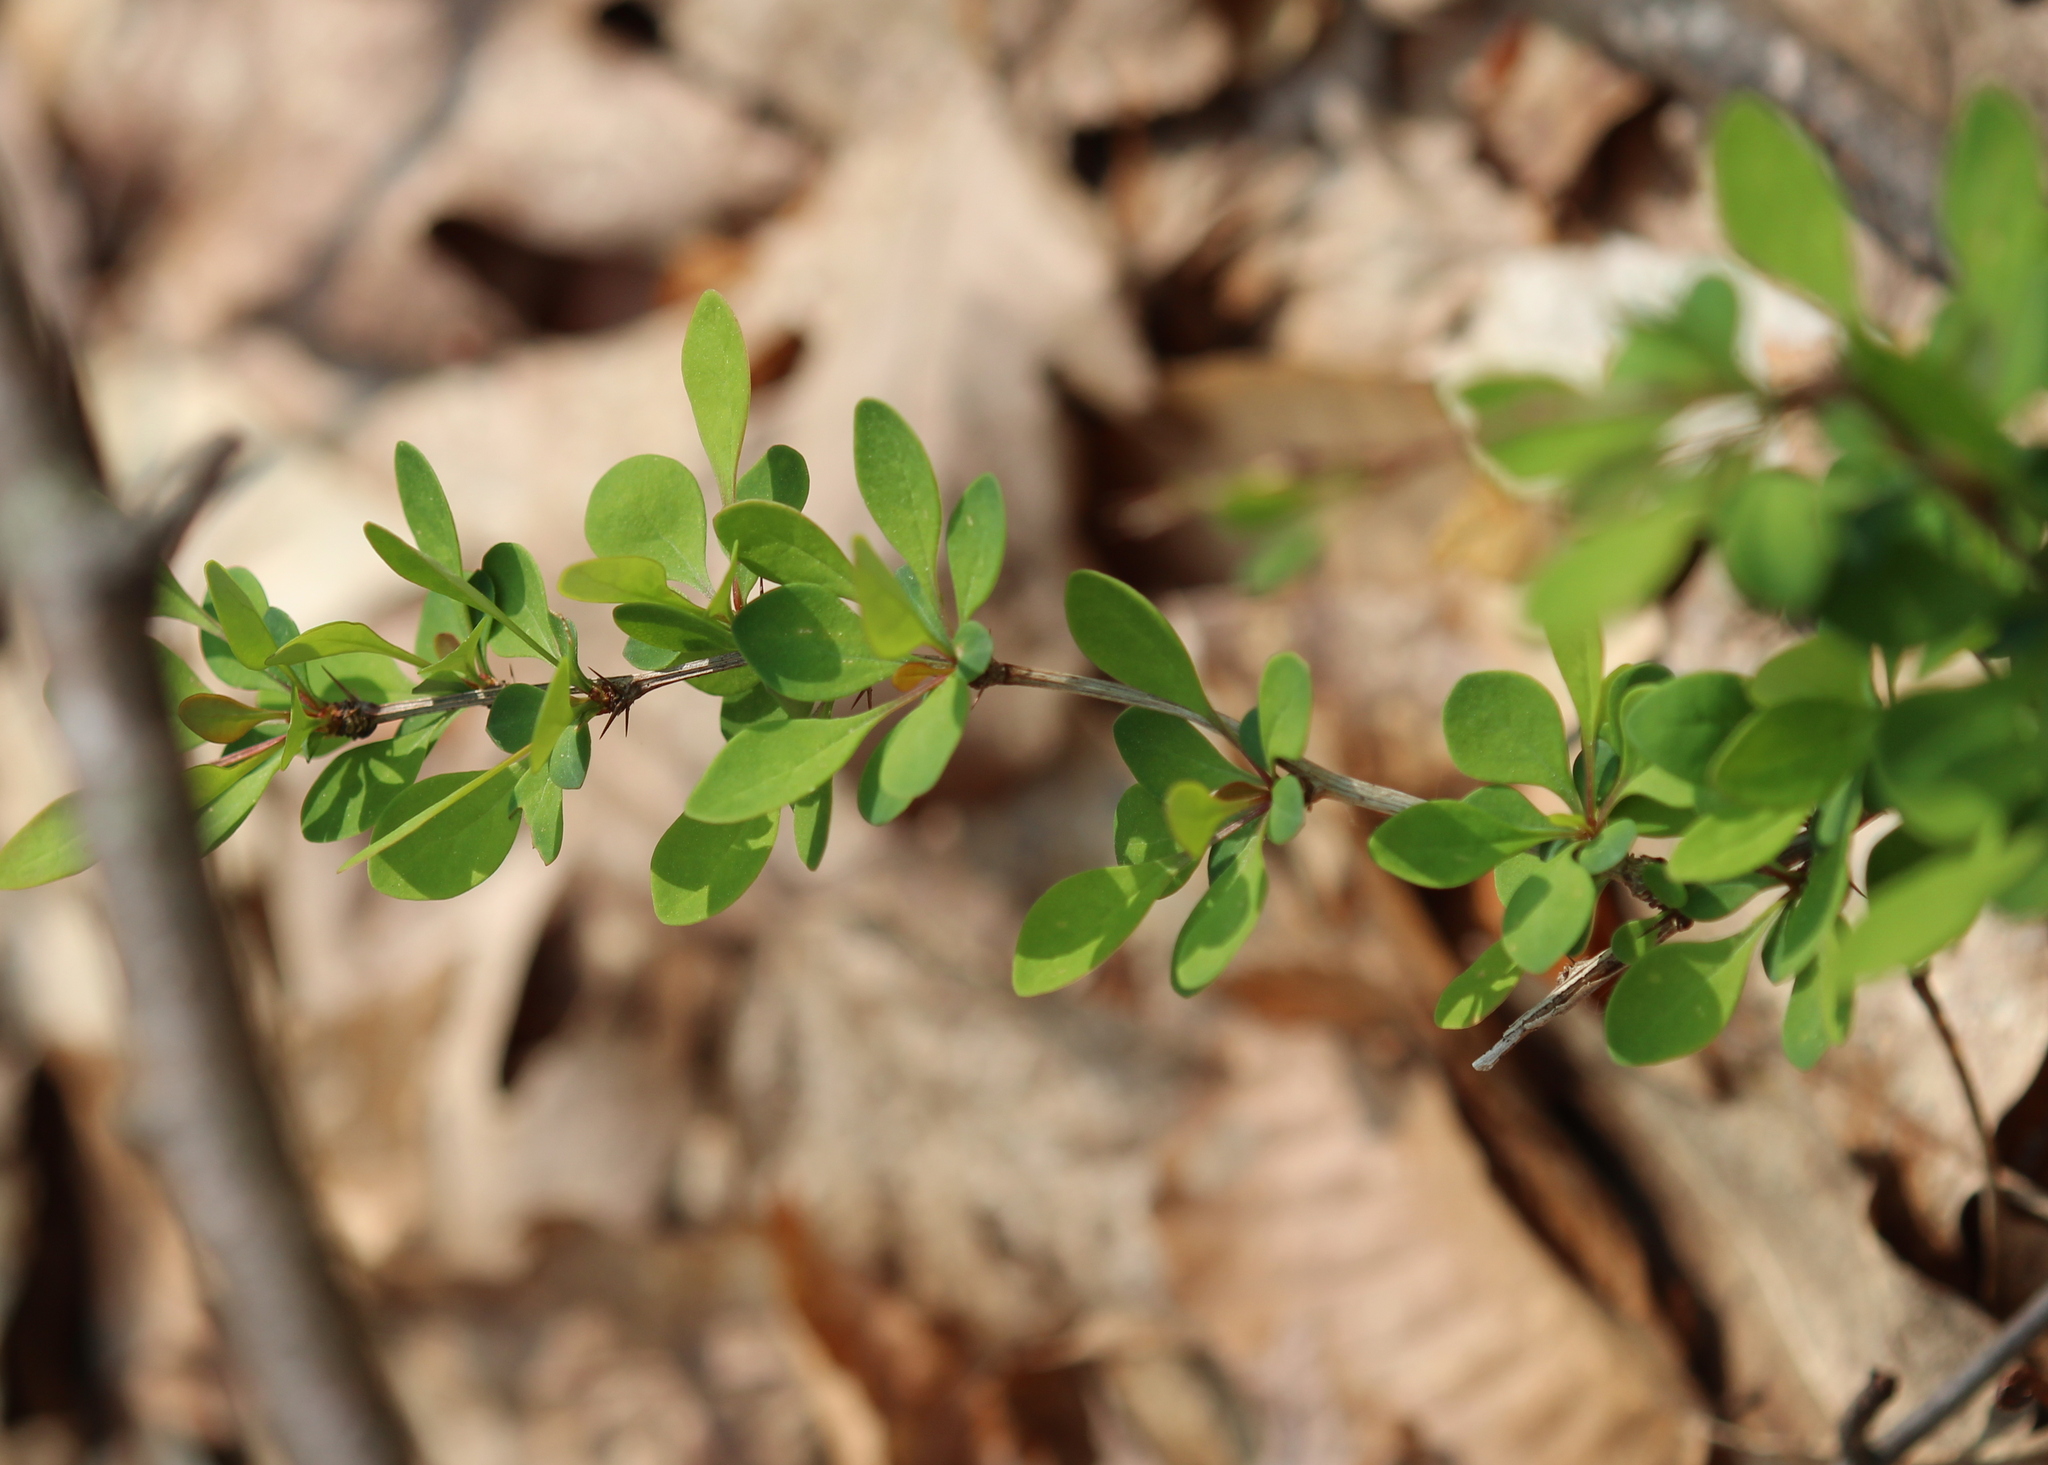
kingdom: Plantae
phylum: Tracheophyta
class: Magnoliopsida
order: Ranunculales
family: Berberidaceae
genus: Berberis
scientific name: Berberis thunbergii
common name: Japanese barberry
